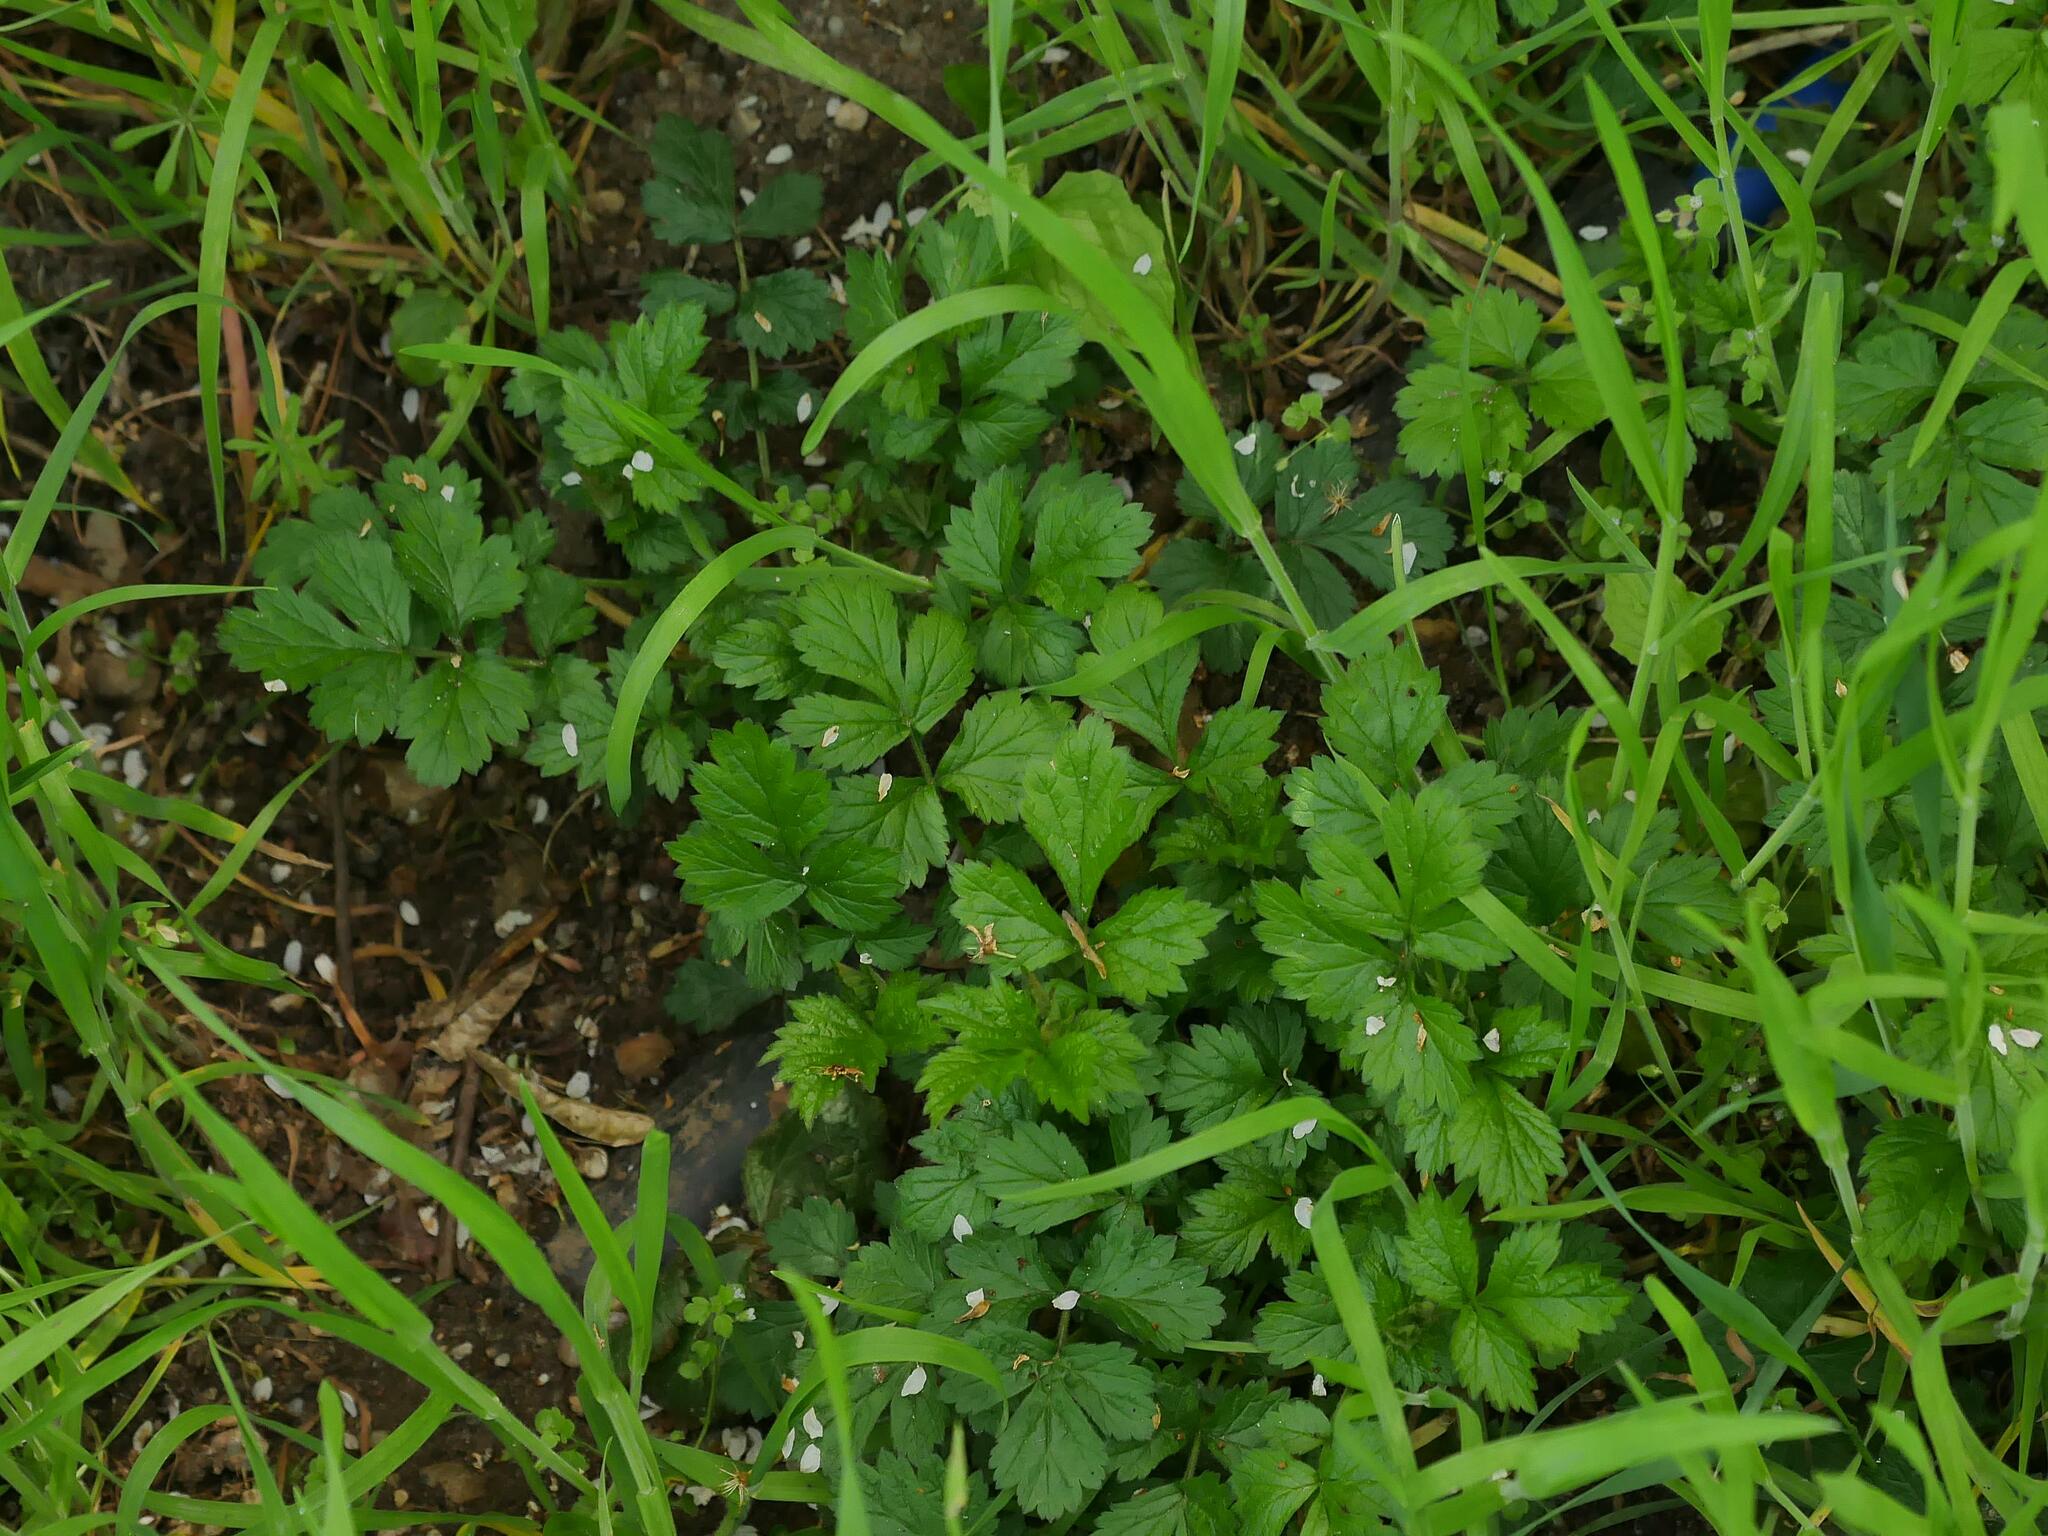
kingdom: Plantae
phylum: Tracheophyta
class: Magnoliopsida
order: Rosales
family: Rosaceae
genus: Geum
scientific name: Geum urbanum
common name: Wood avens
